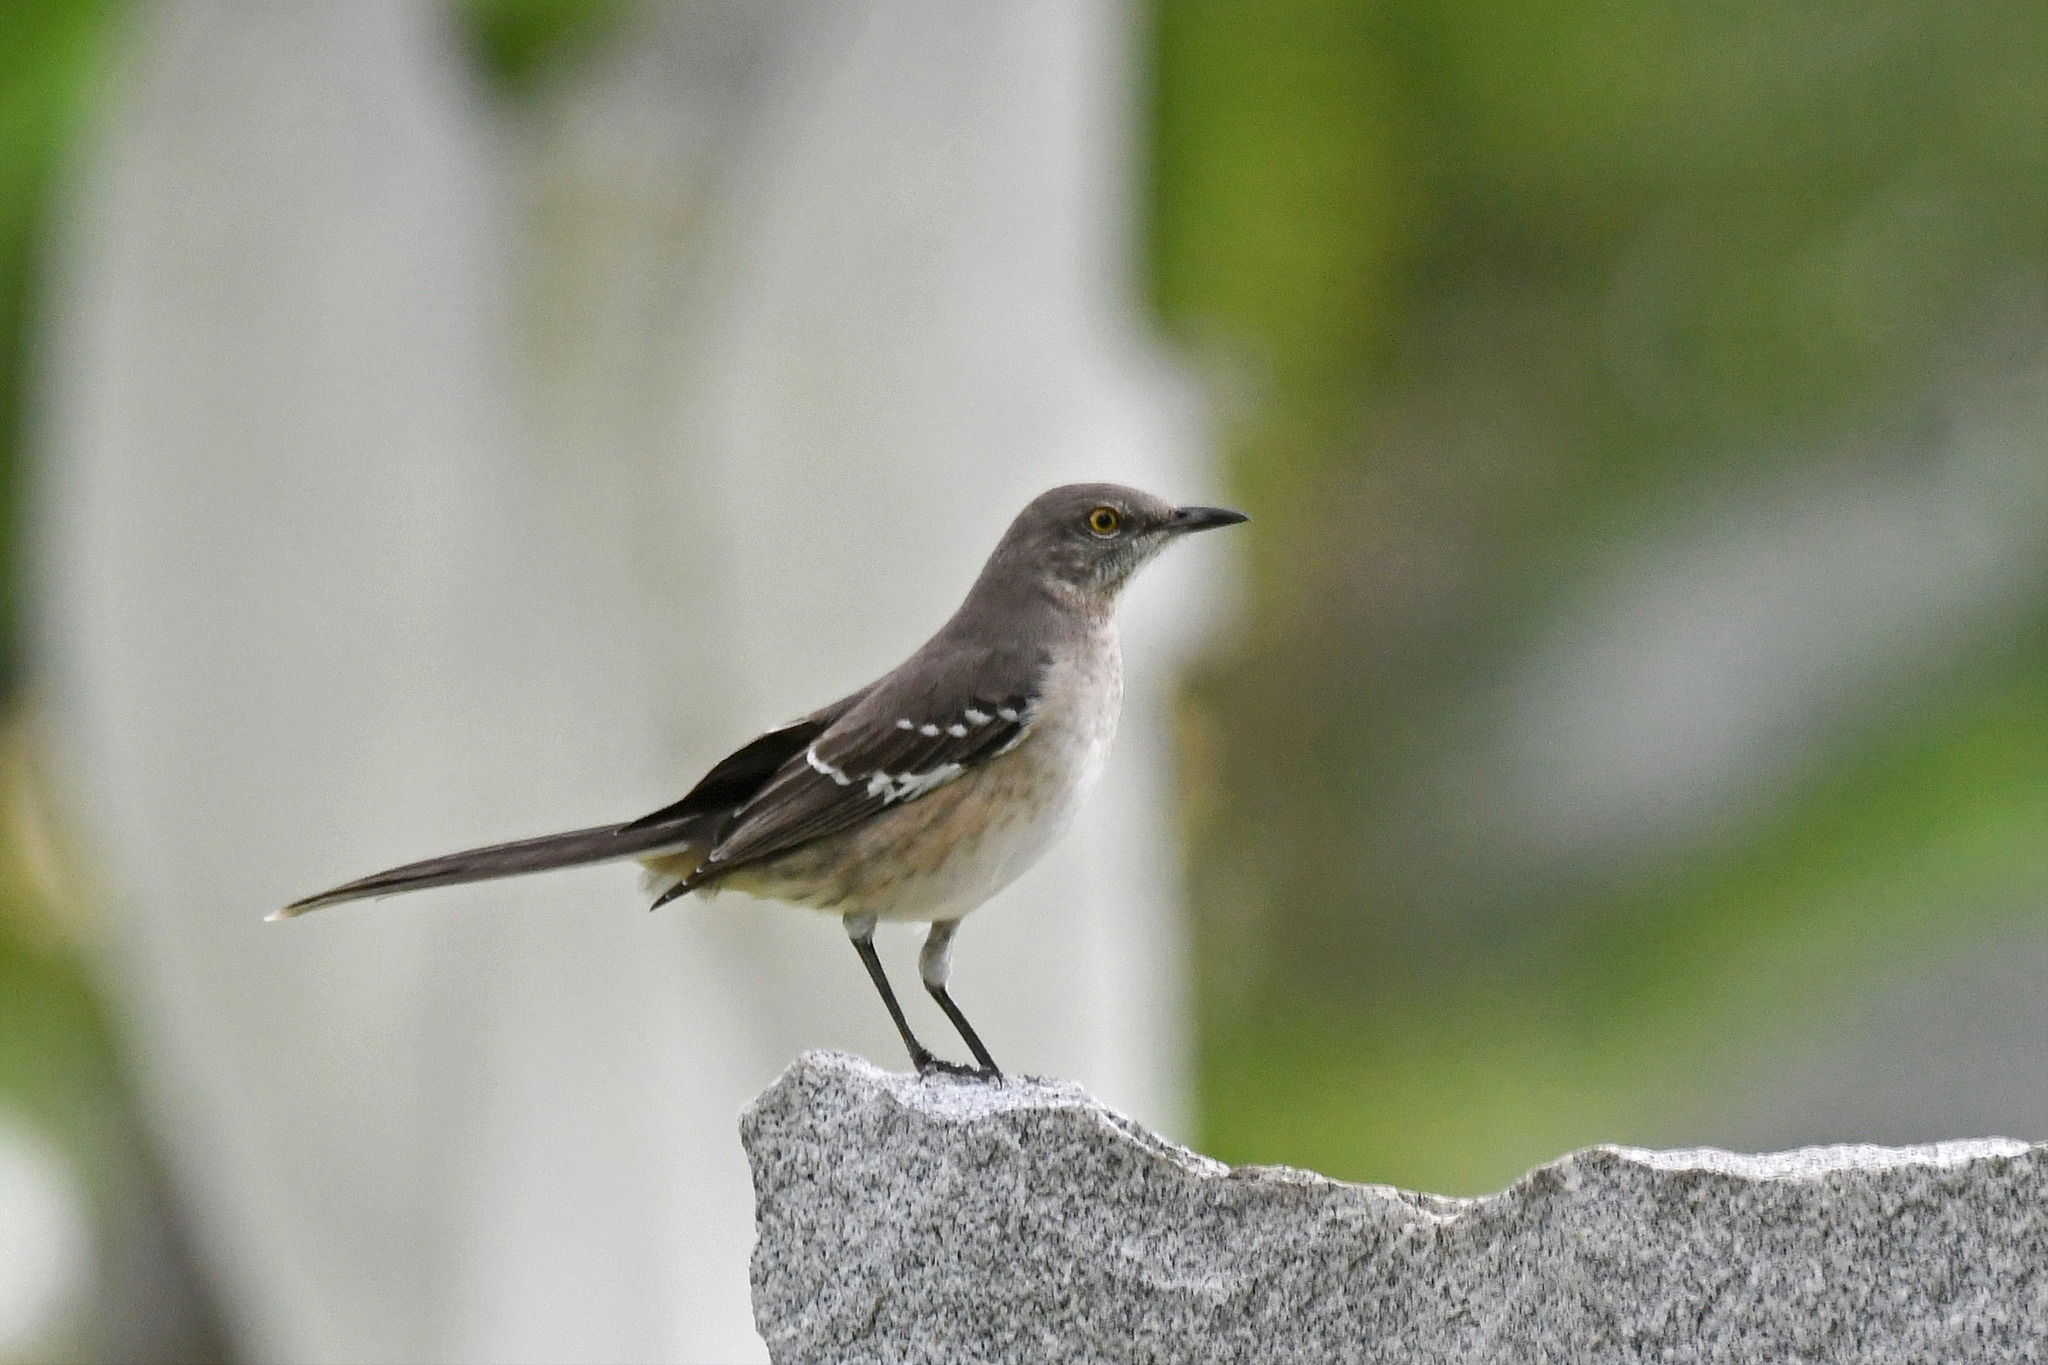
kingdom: Animalia
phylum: Chordata
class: Aves
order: Passeriformes
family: Mimidae
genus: Mimus
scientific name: Mimus polyglottos
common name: Northern mockingbird
